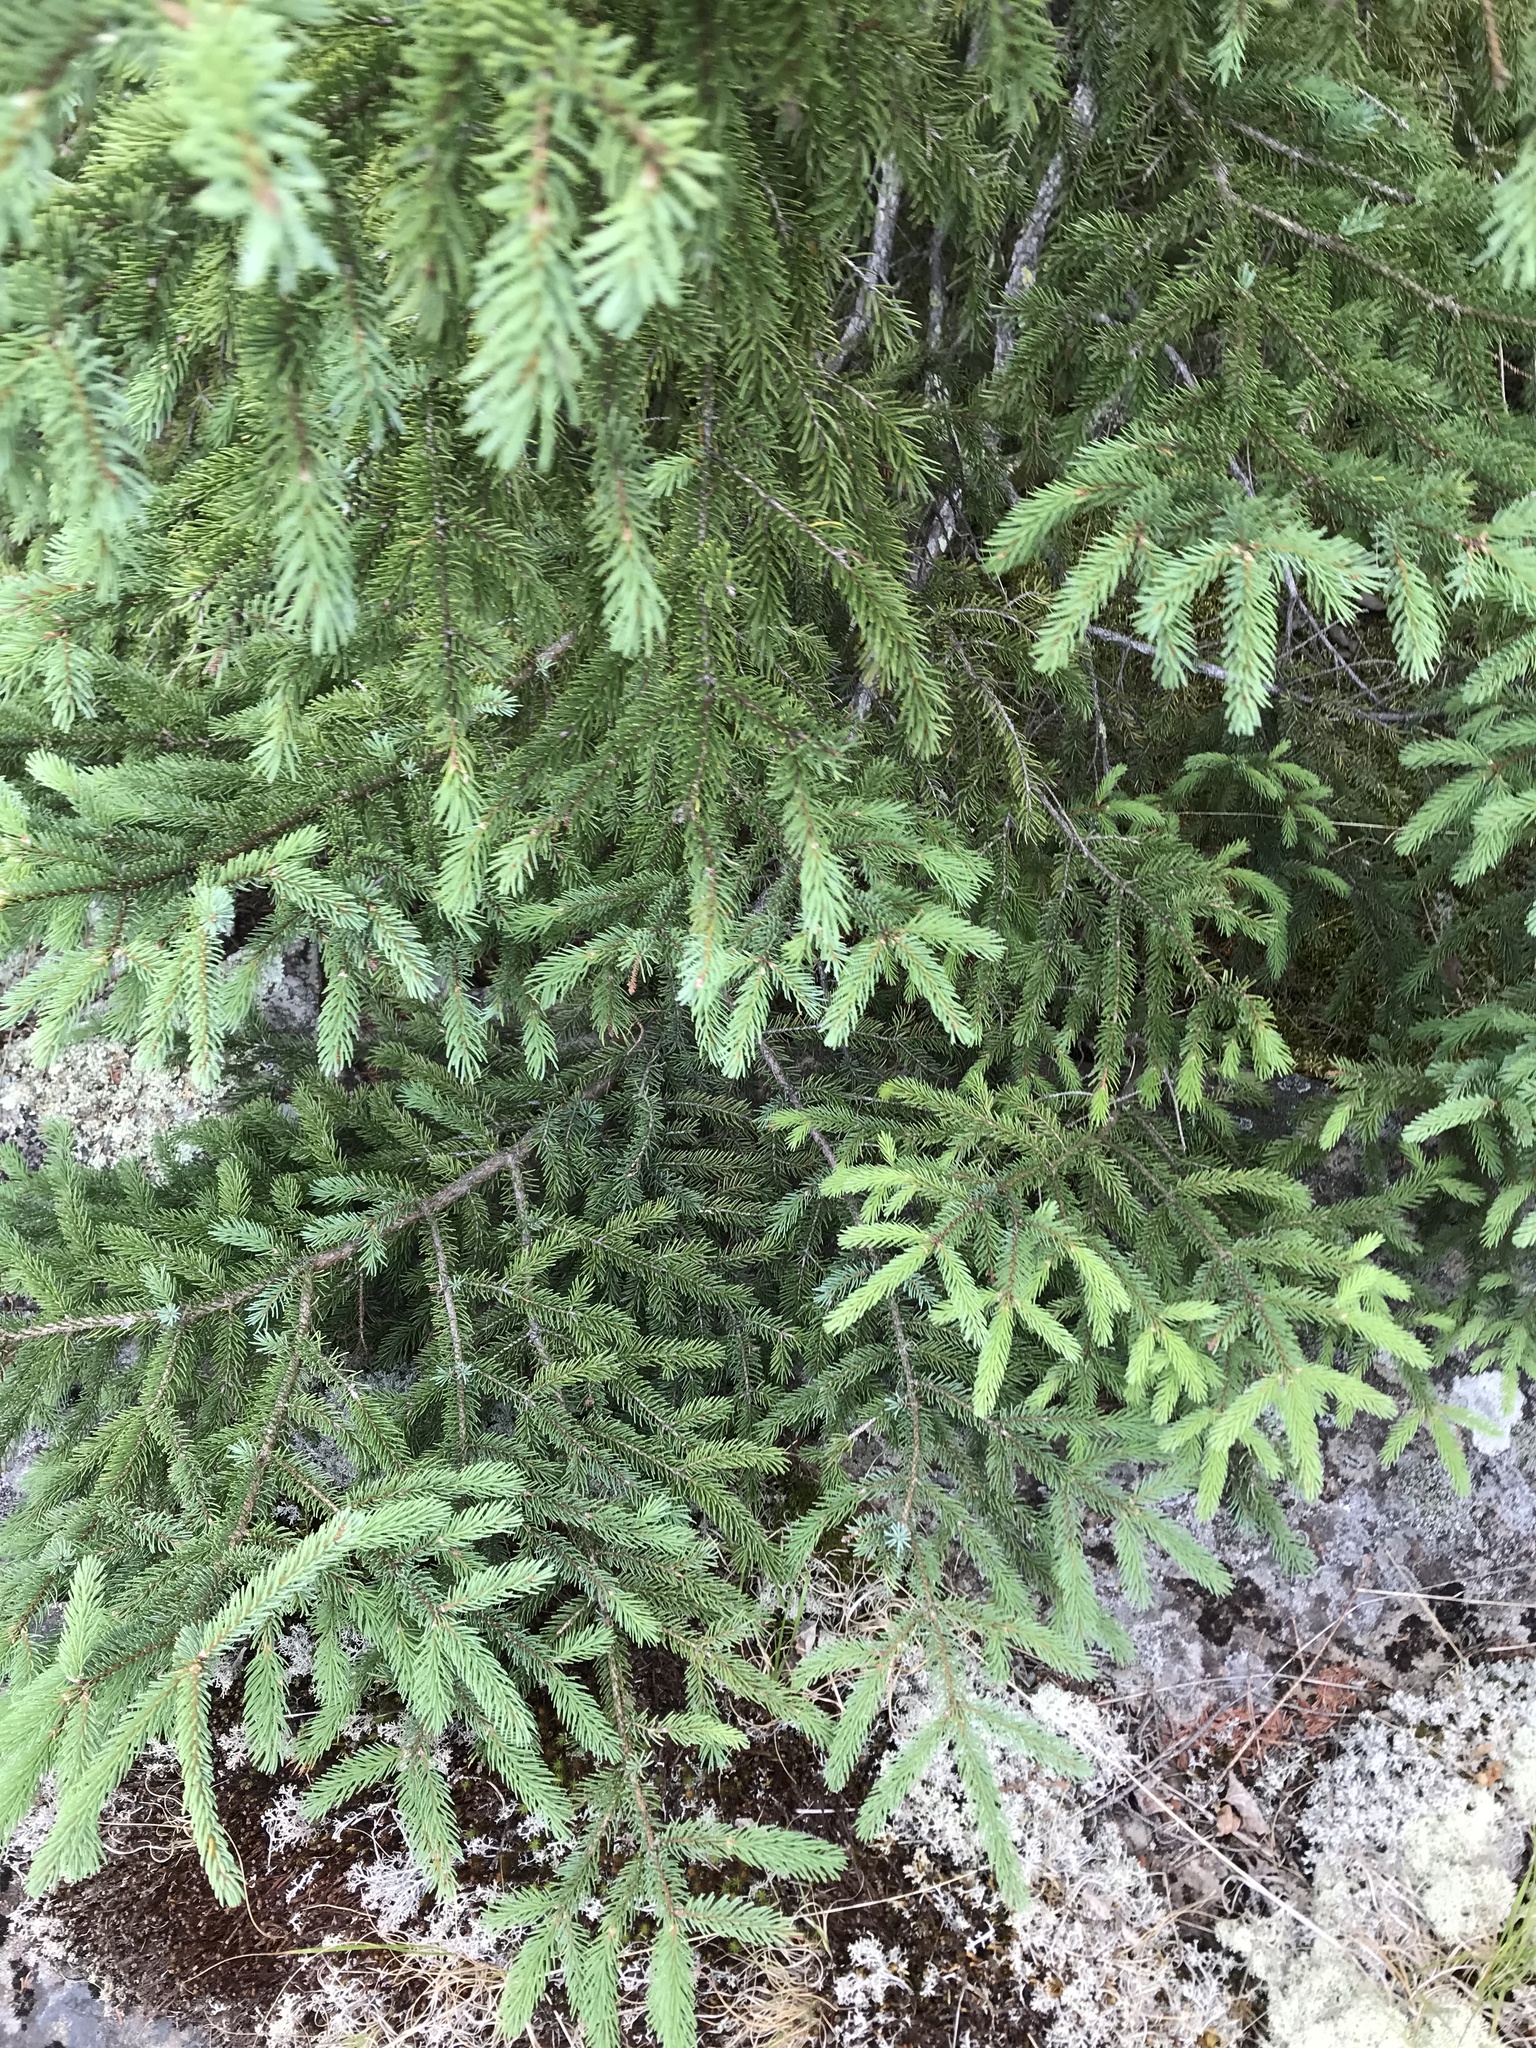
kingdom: Plantae
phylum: Tracheophyta
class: Pinopsida
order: Pinales
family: Pinaceae
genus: Picea
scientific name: Picea mariana
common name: Black spruce
